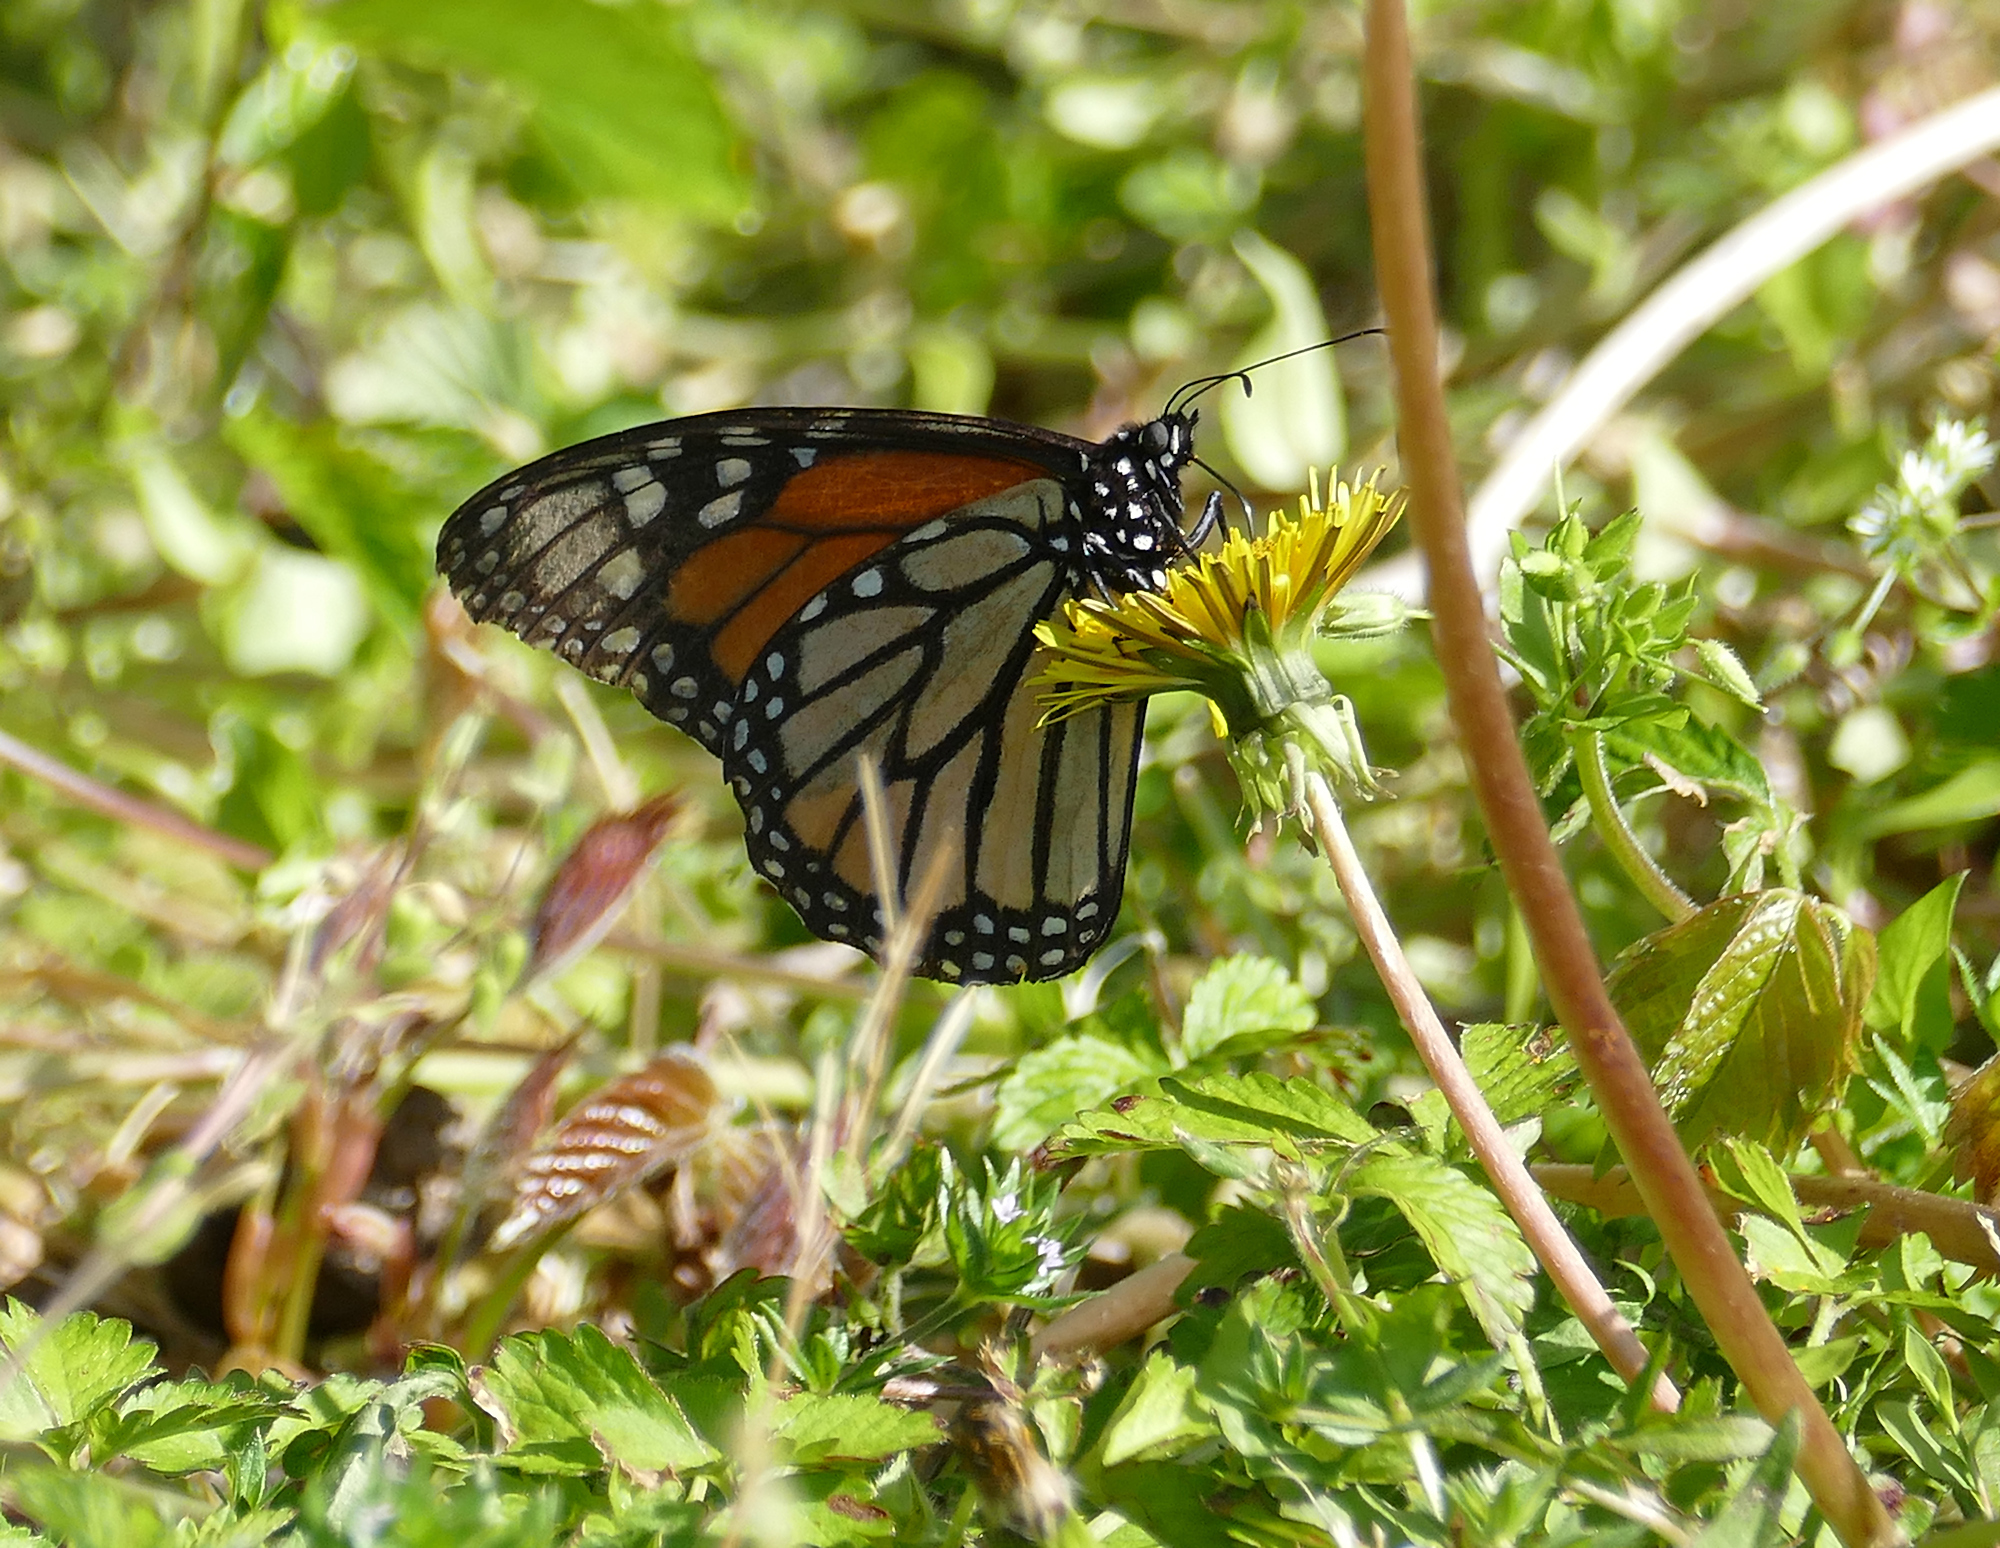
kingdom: Animalia
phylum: Arthropoda
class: Insecta
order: Lepidoptera
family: Nymphalidae
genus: Danaus
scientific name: Danaus plexippus
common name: Monarch
